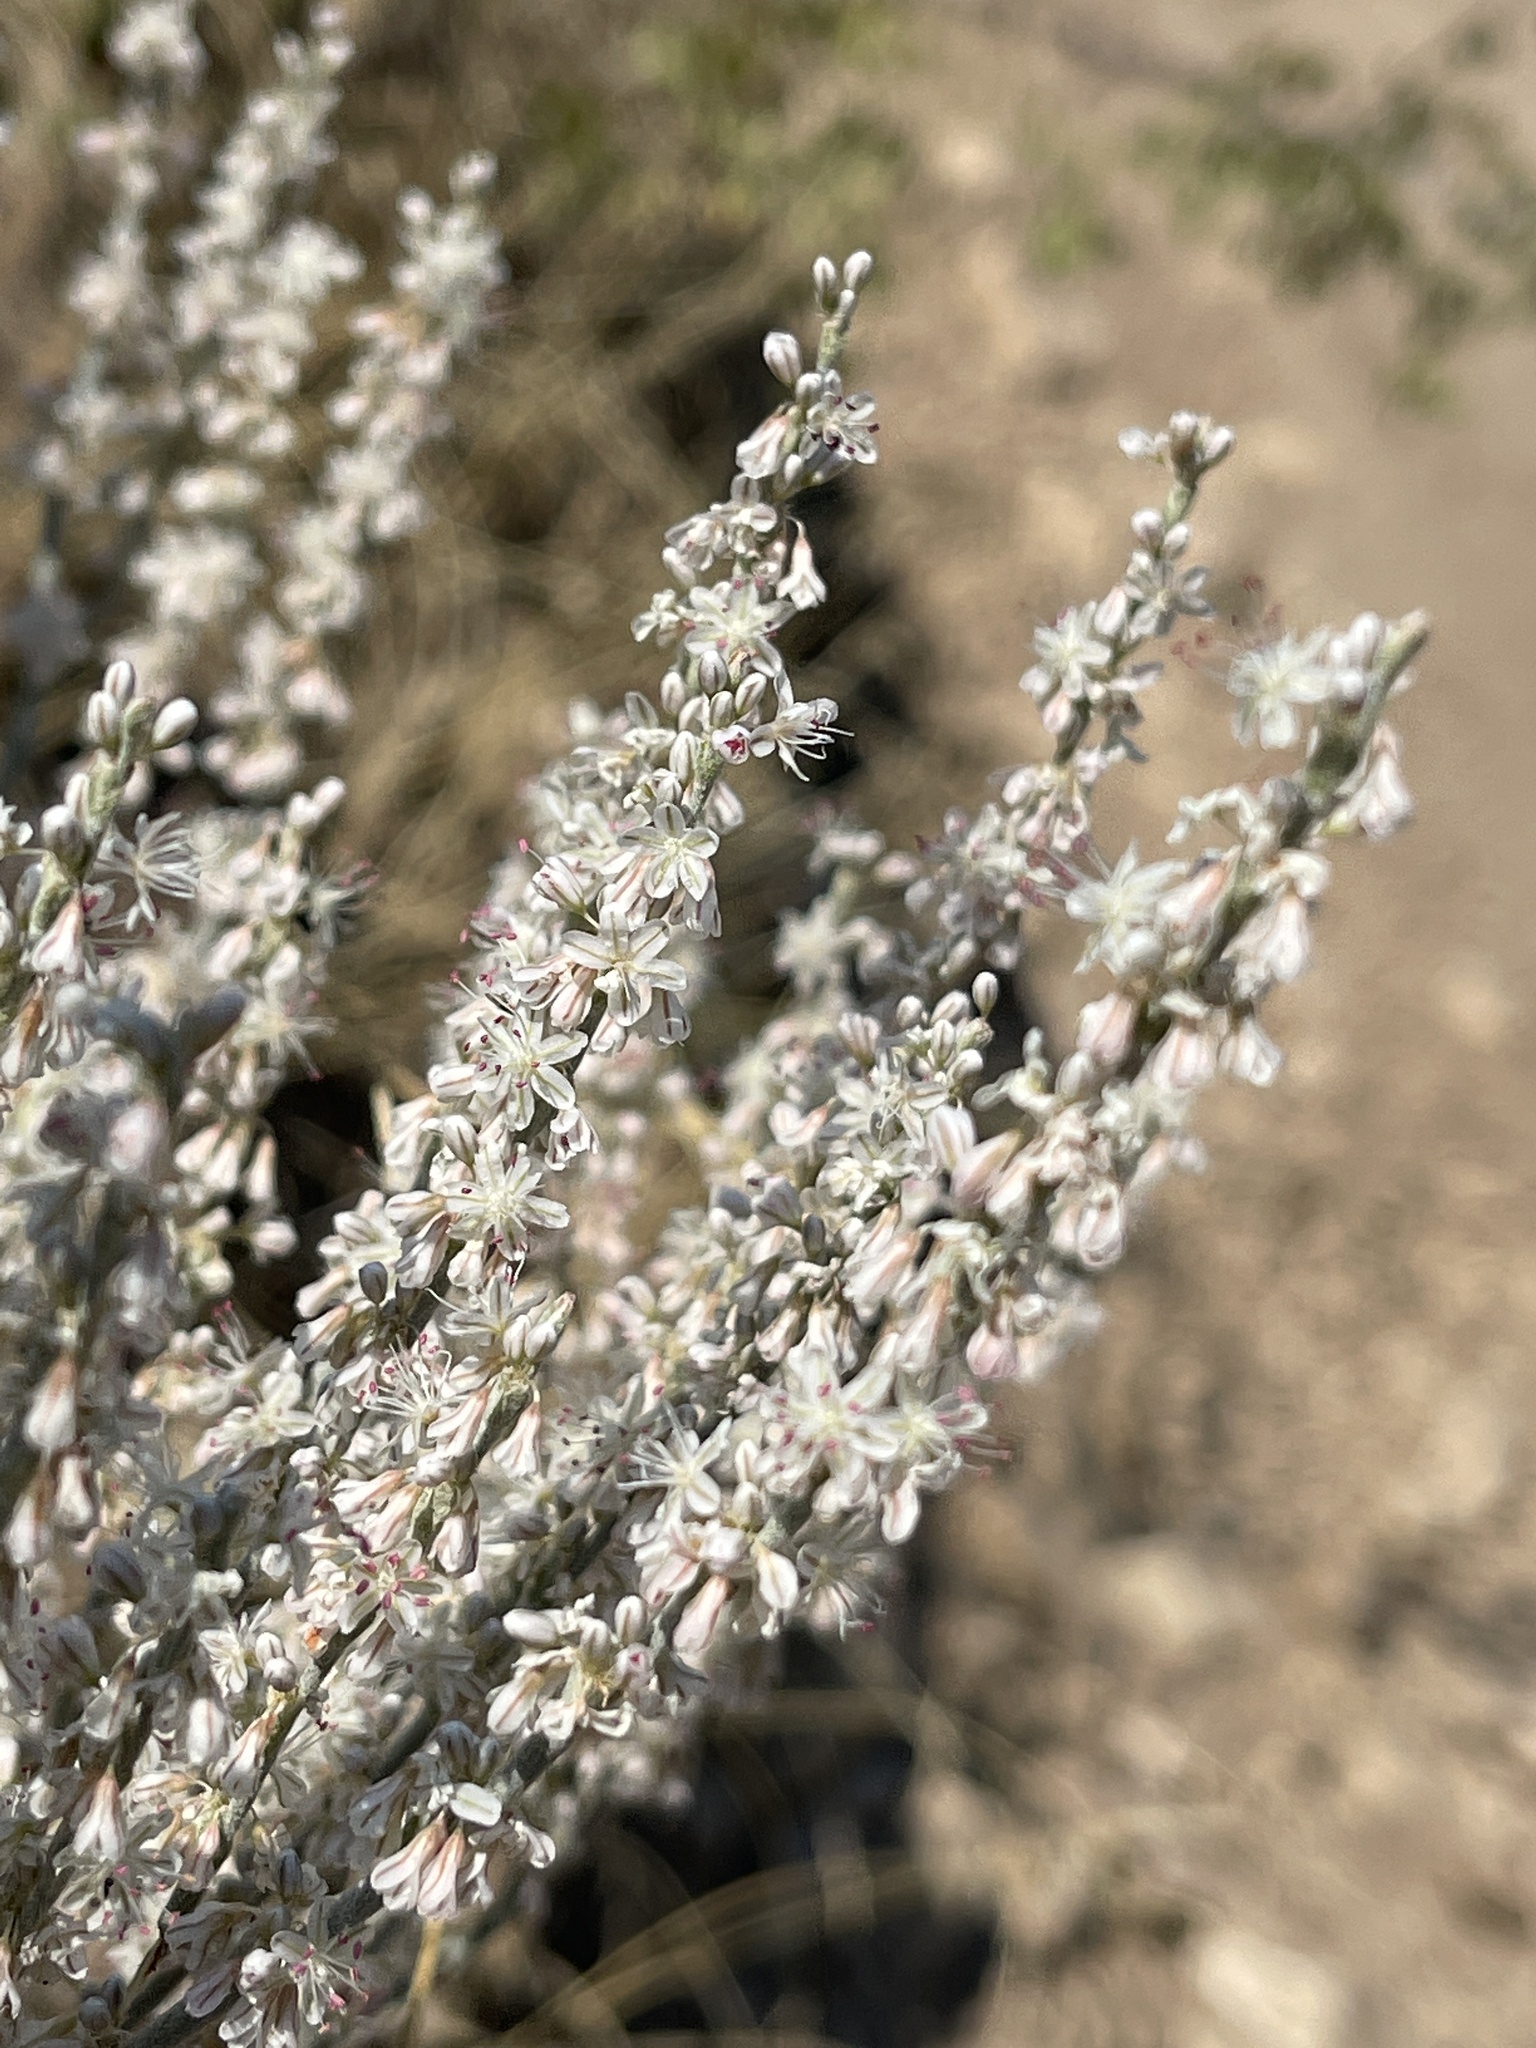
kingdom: Plantae
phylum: Tracheophyta
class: Magnoliopsida
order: Caryophyllales
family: Polygonaceae
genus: Eriogonum
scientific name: Eriogonum racemosum
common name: Redroot wild buckwheat
